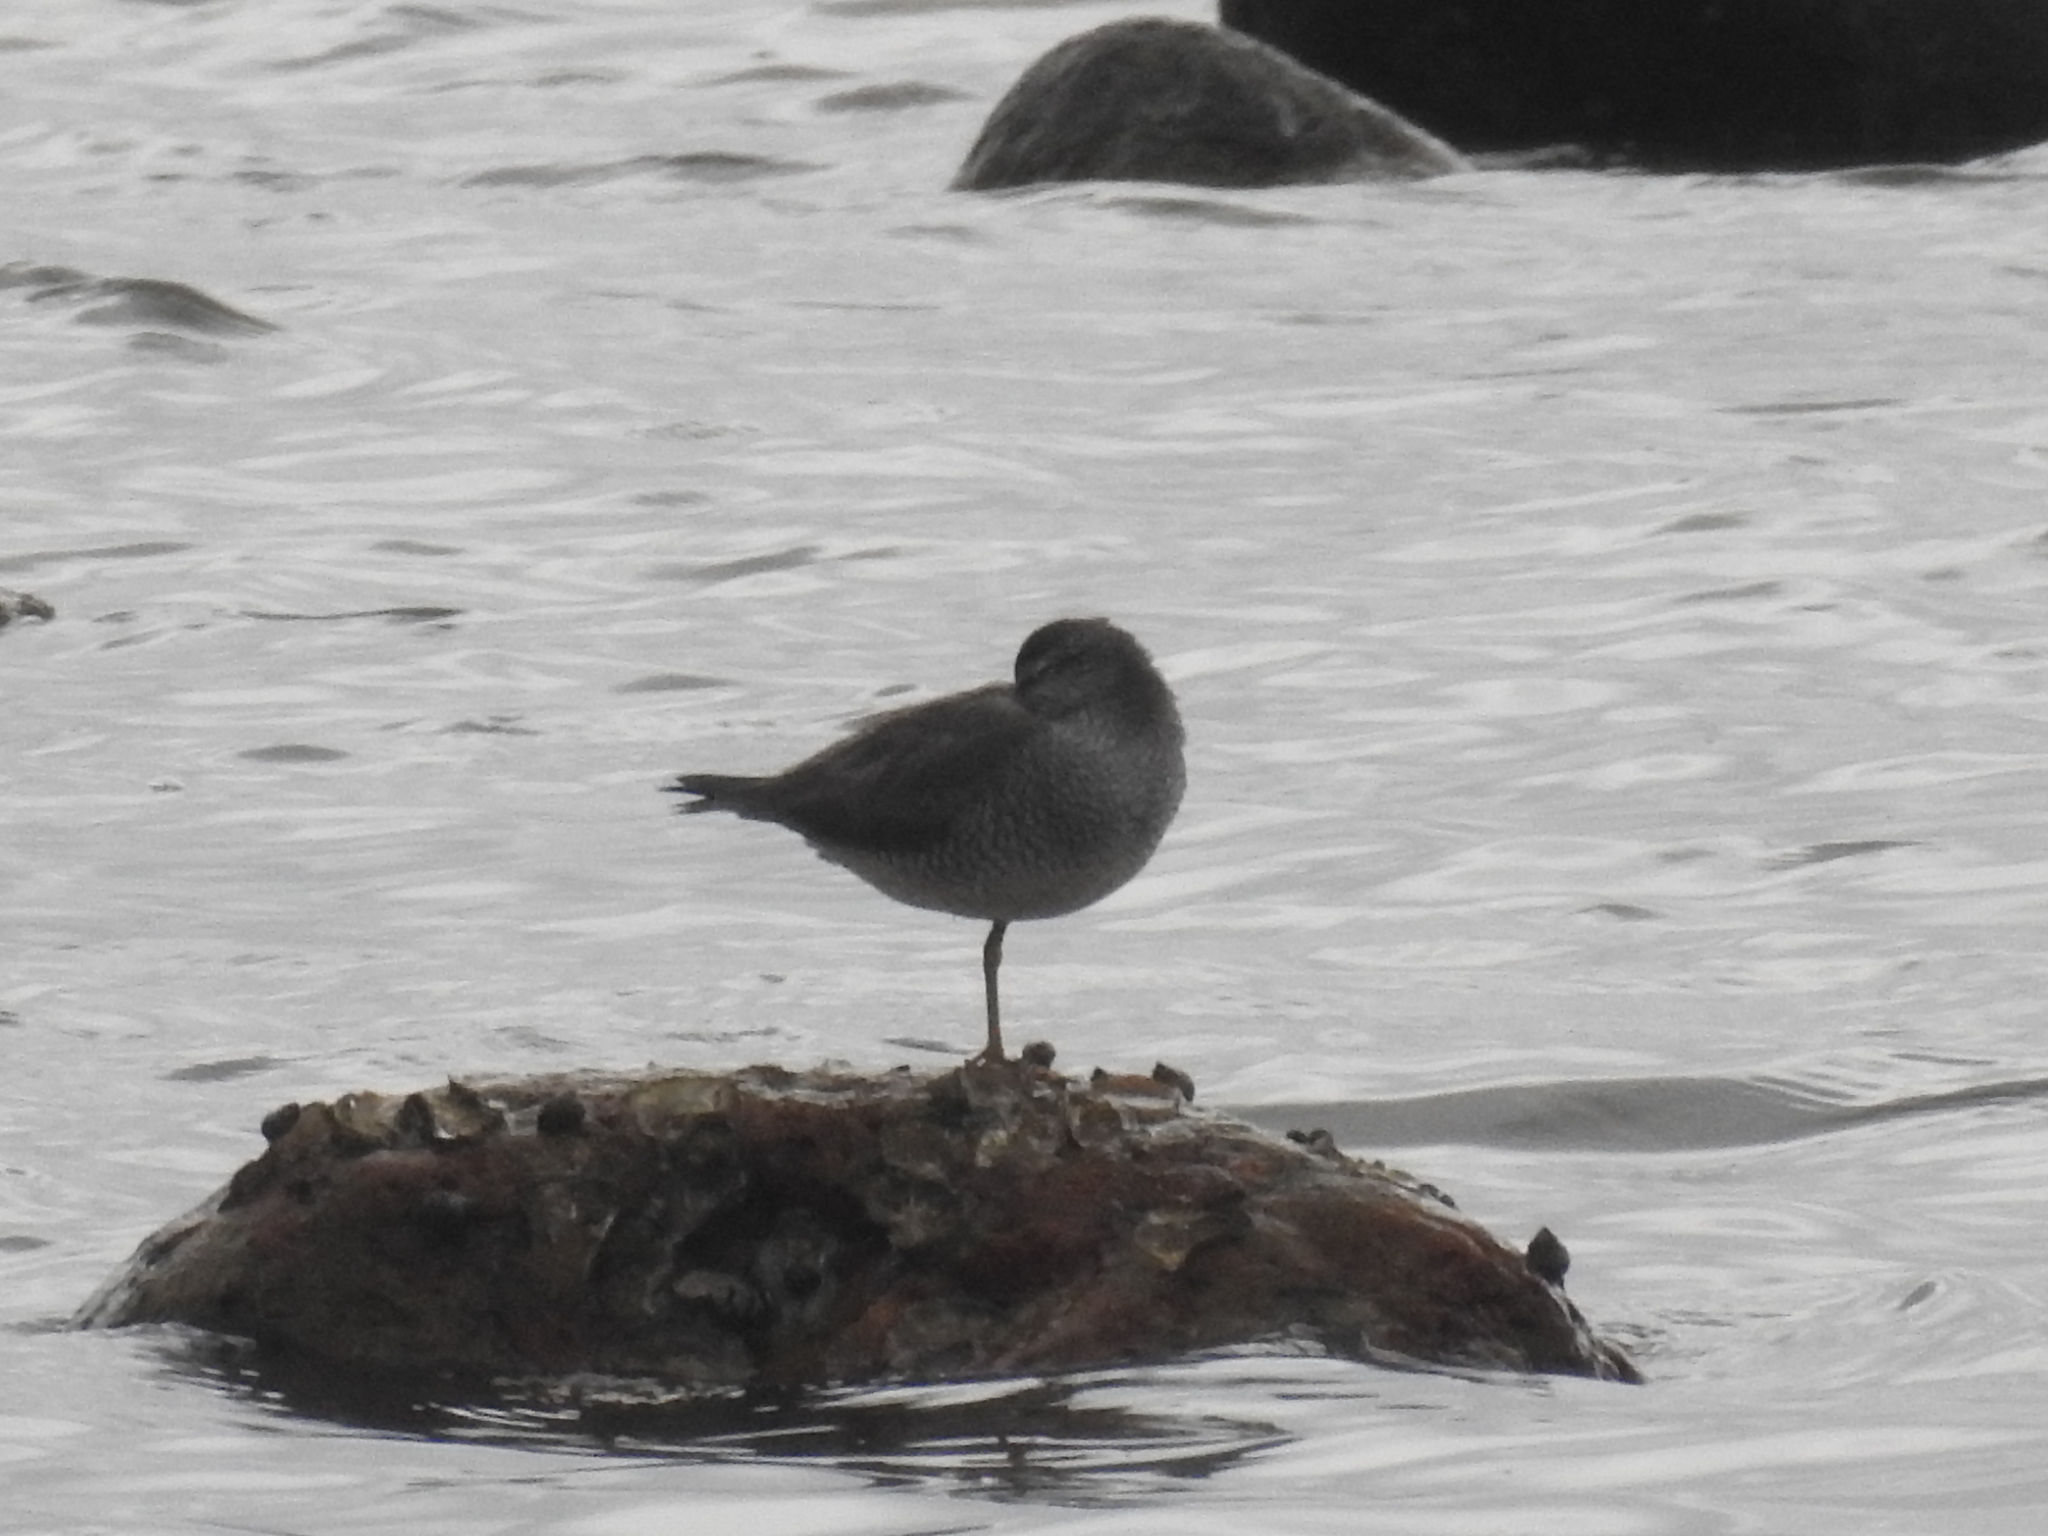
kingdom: Animalia
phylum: Chordata
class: Aves
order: Charadriiformes
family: Scolopacidae
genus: Tringa
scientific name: Tringa brevipes
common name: Grey-tailed tattler
